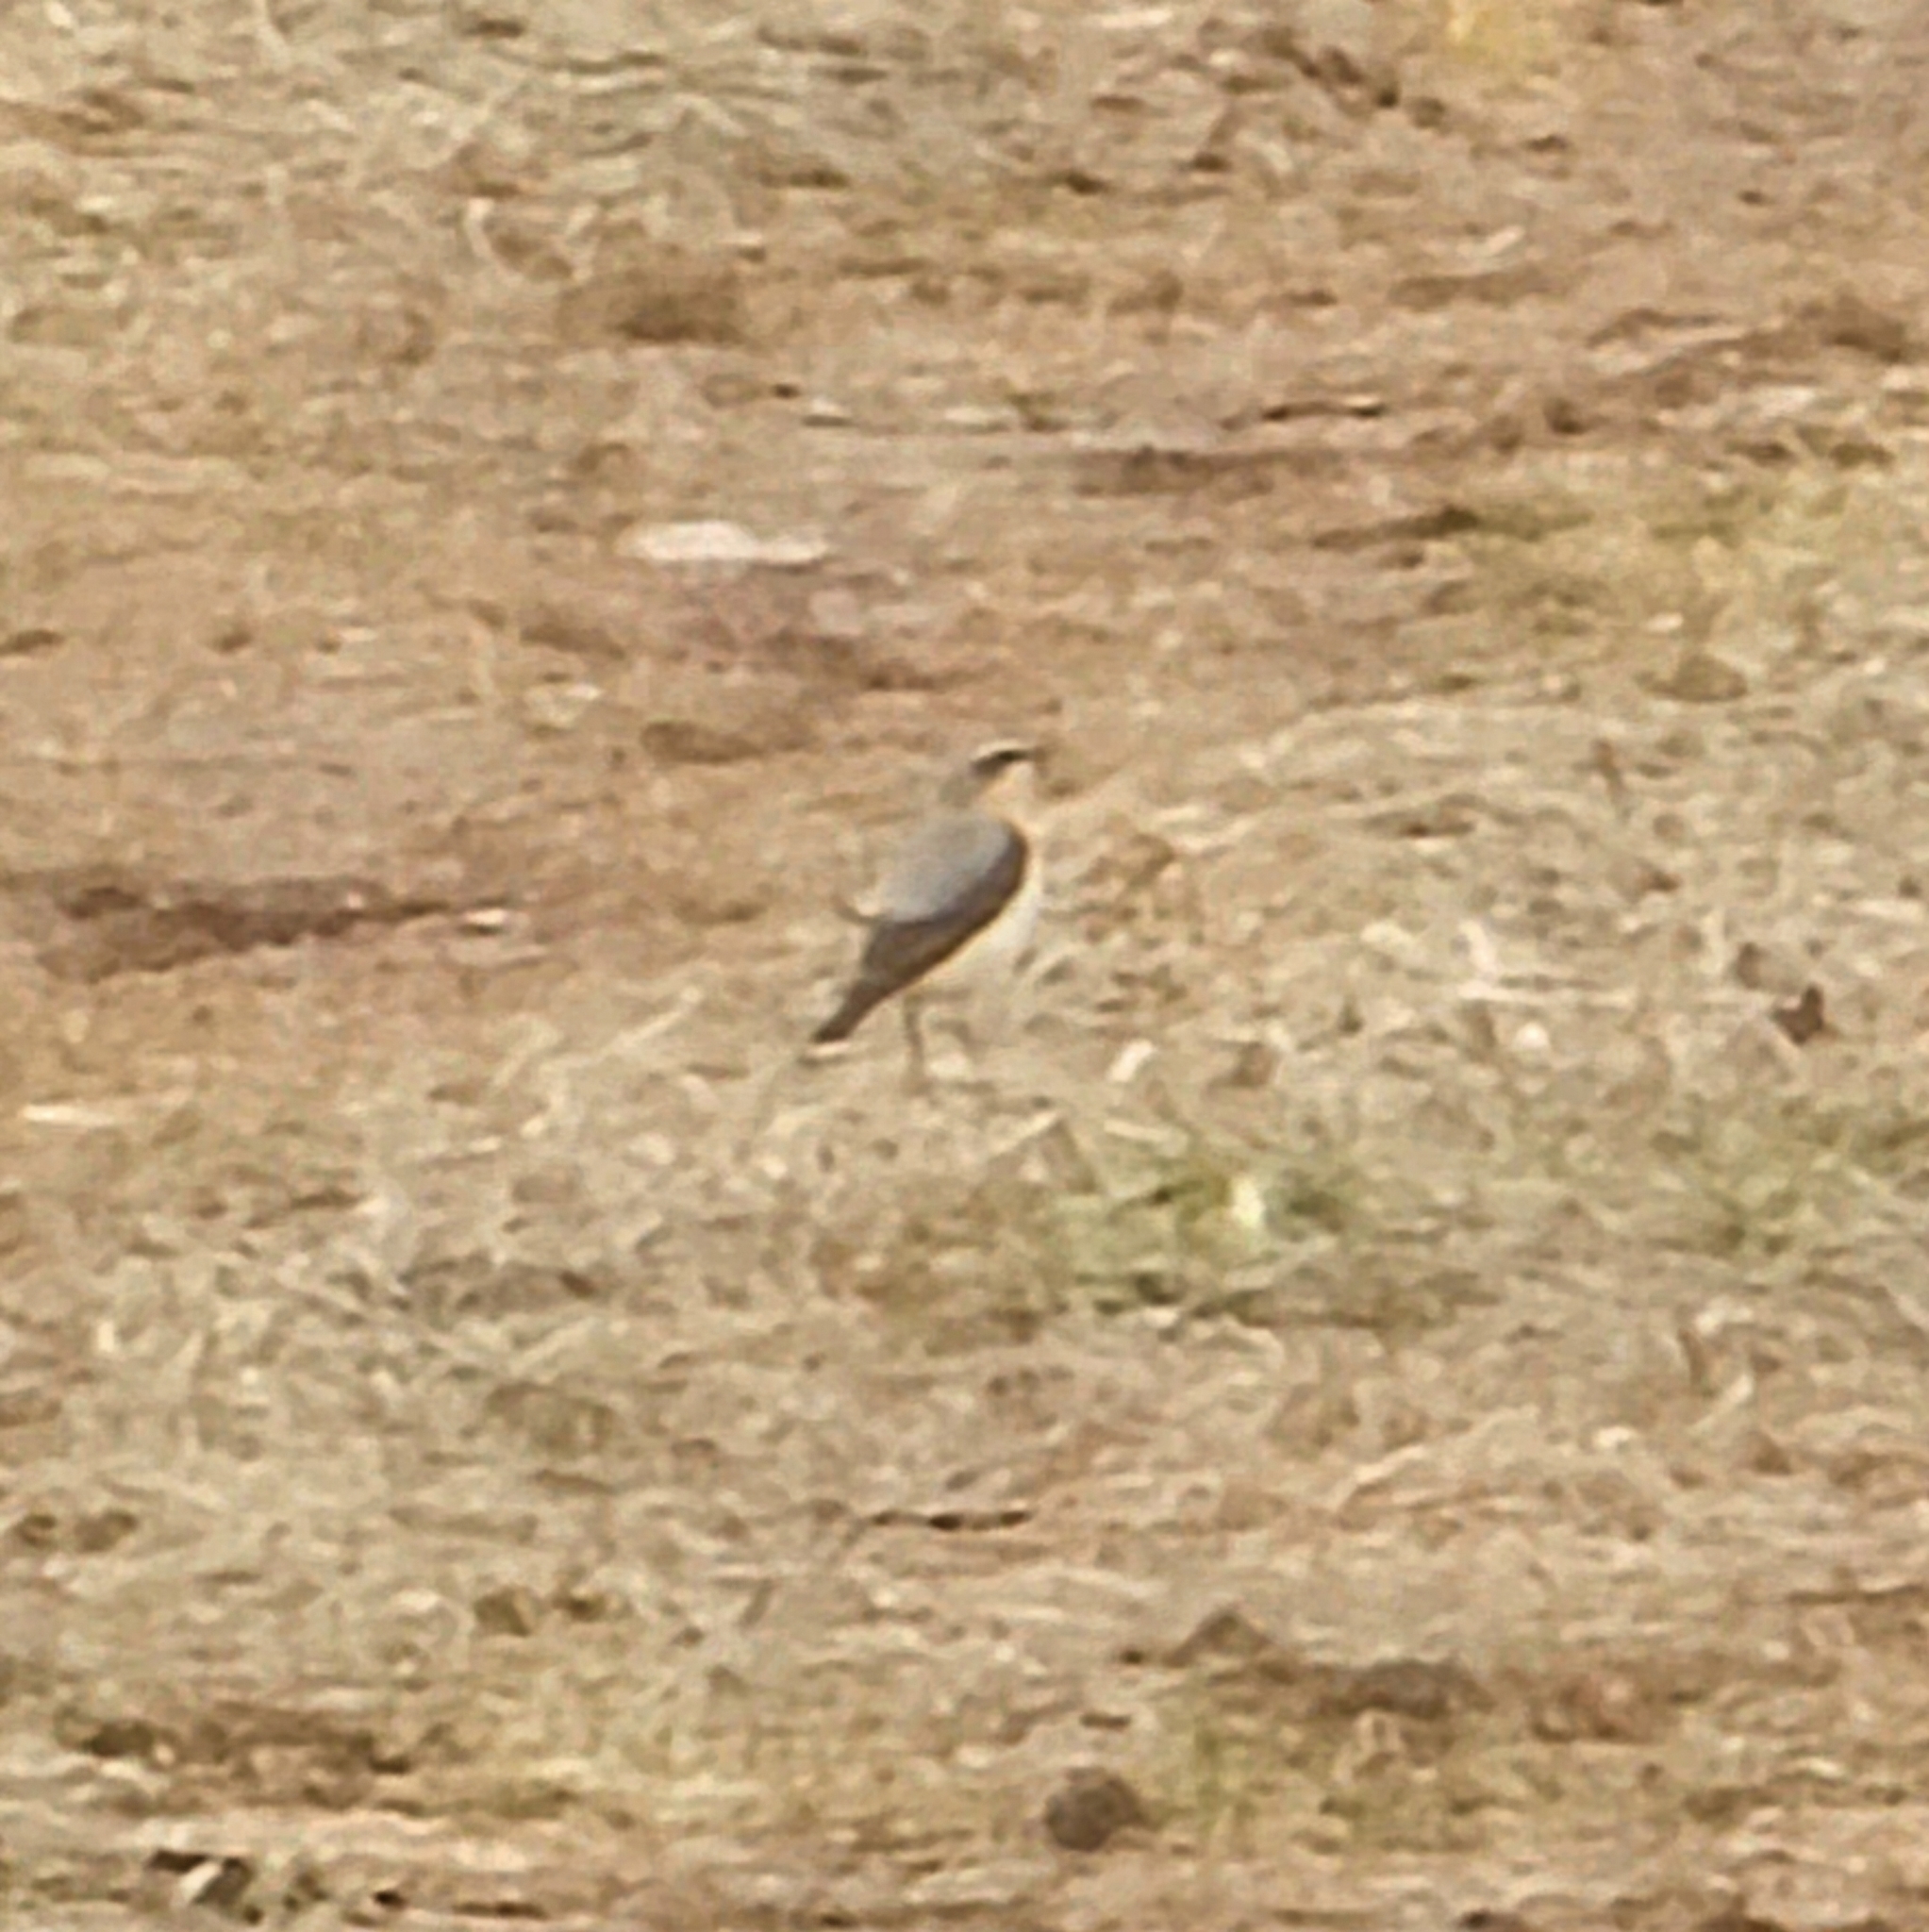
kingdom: Animalia
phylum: Chordata
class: Aves
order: Passeriformes
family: Muscicapidae
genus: Oenanthe
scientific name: Oenanthe oenanthe
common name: Northern wheatear
